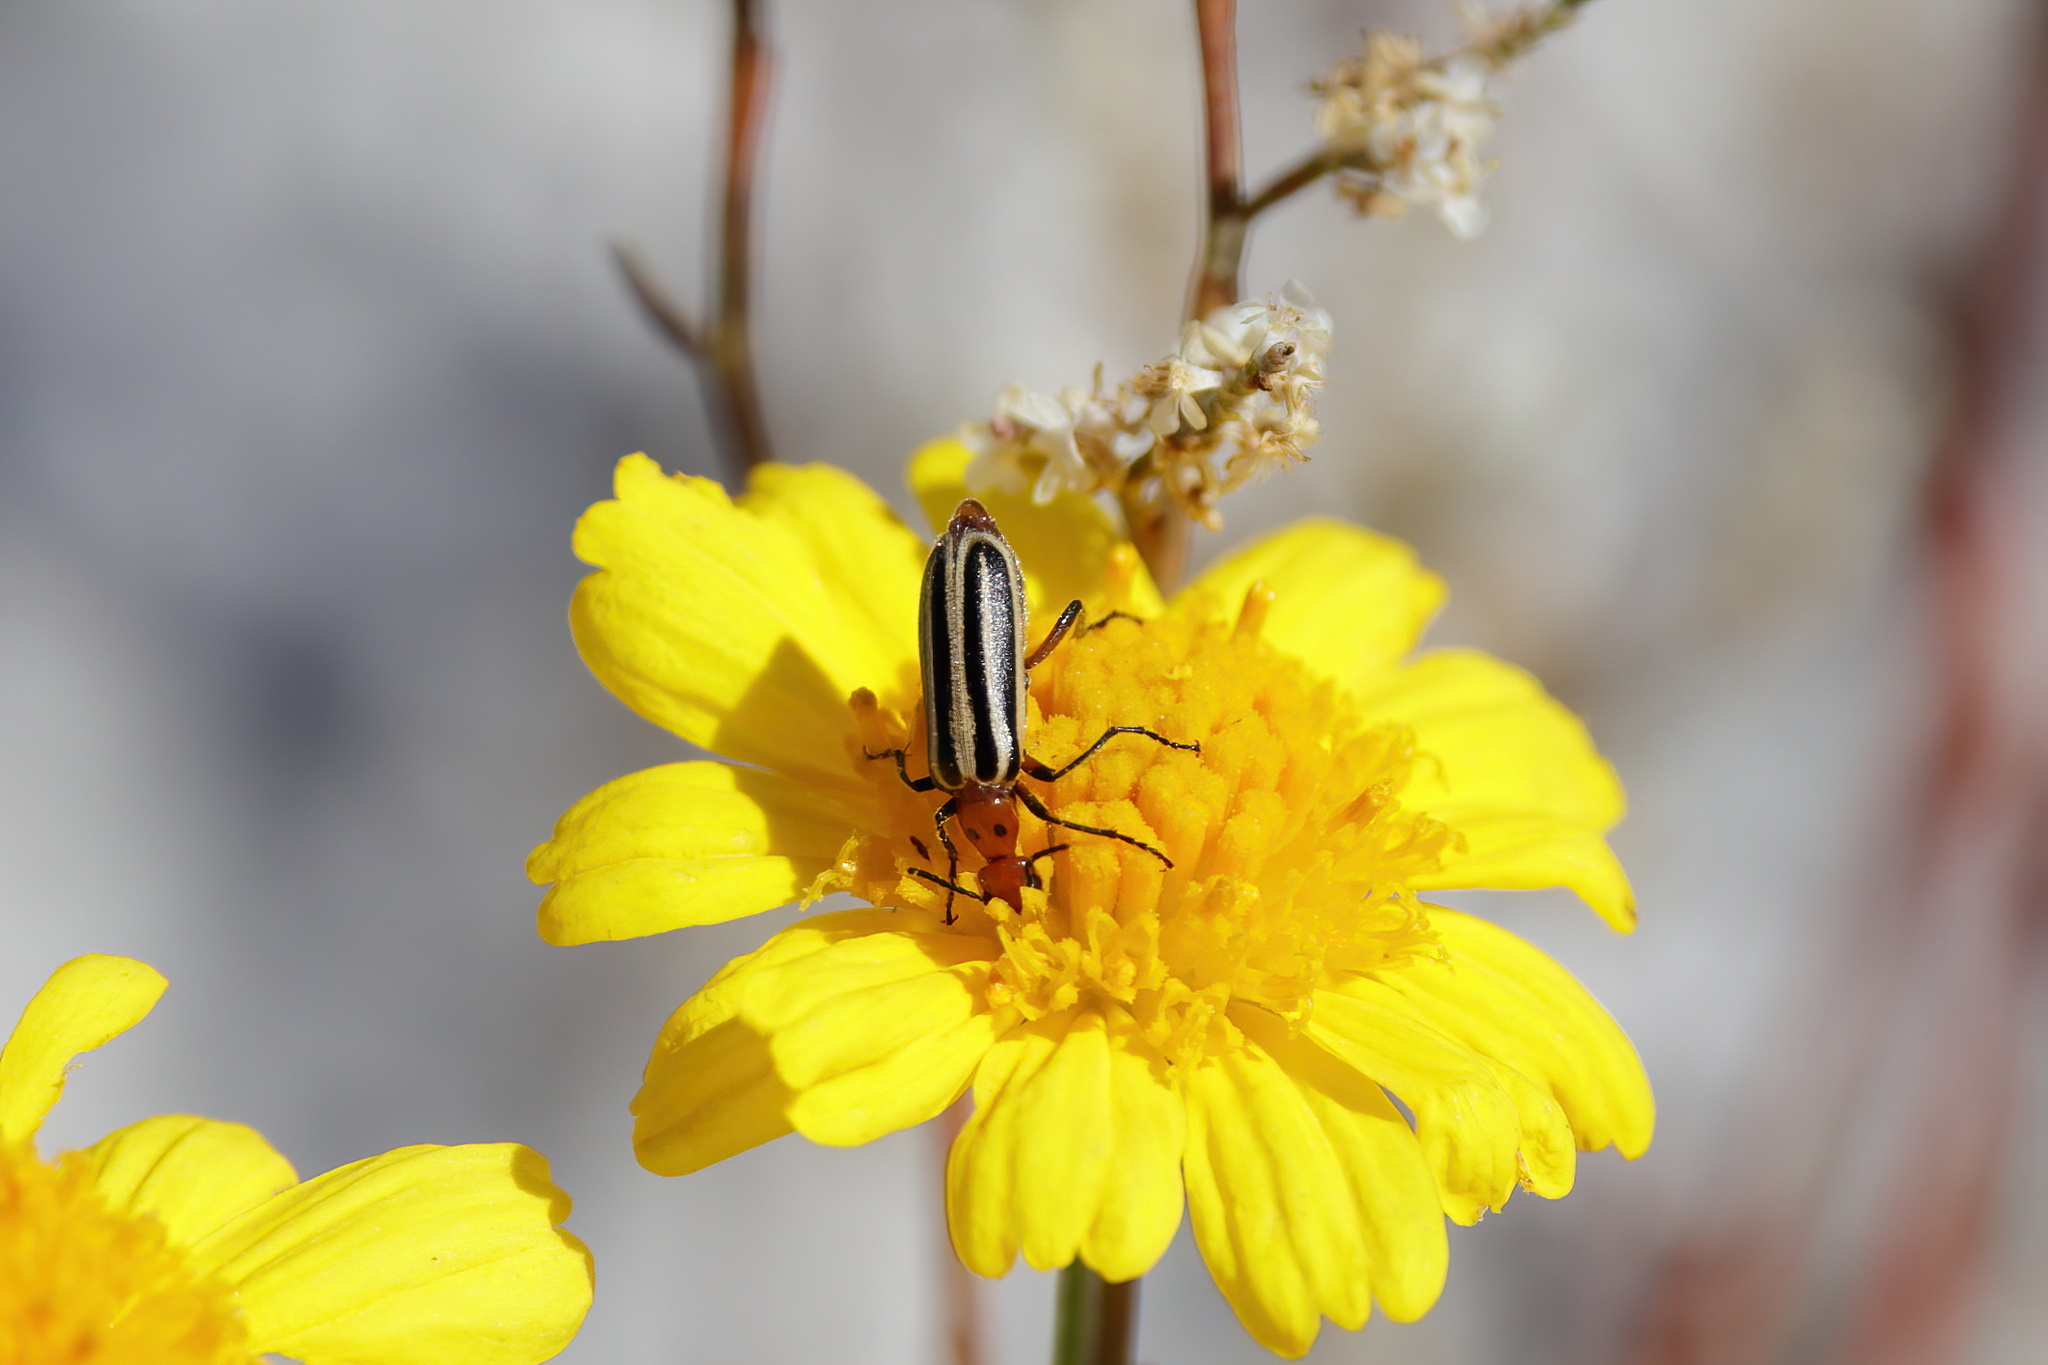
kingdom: Animalia
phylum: Arthropoda
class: Insecta
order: Coleoptera
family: Meloidae
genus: Pyrota
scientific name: Pyrota
